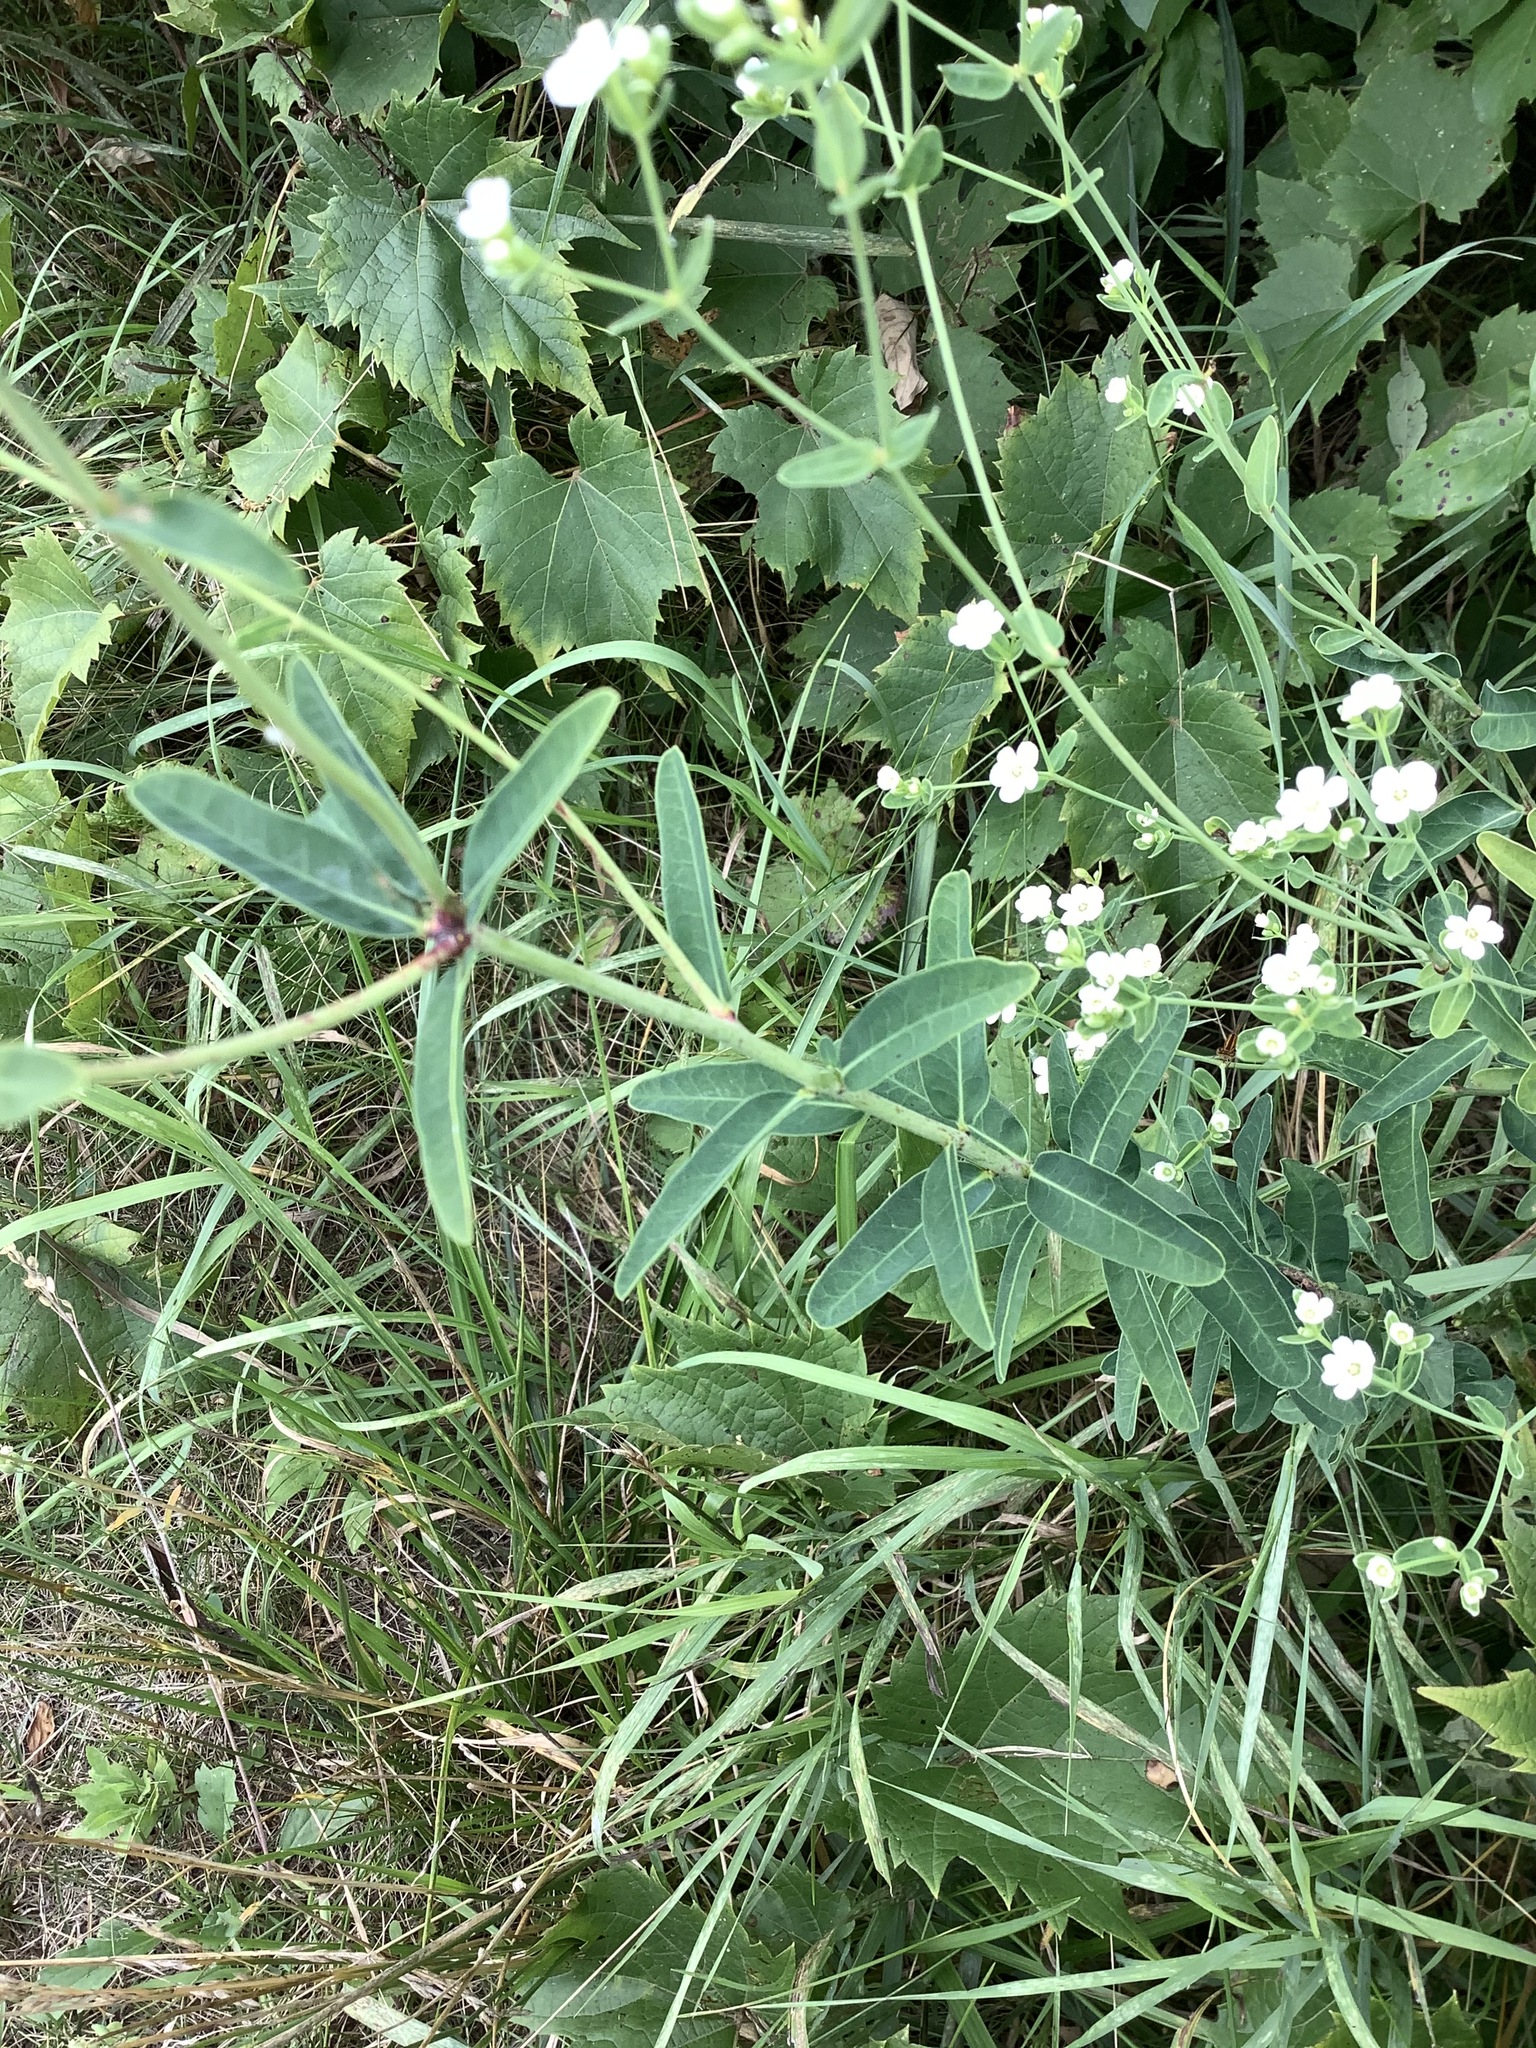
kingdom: Plantae
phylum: Tracheophyta
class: Magnoliopsida
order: Malpighiales
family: Euphorbiaceae
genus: Euphorbia
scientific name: Euphorbia corollata
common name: Flowering spurge
